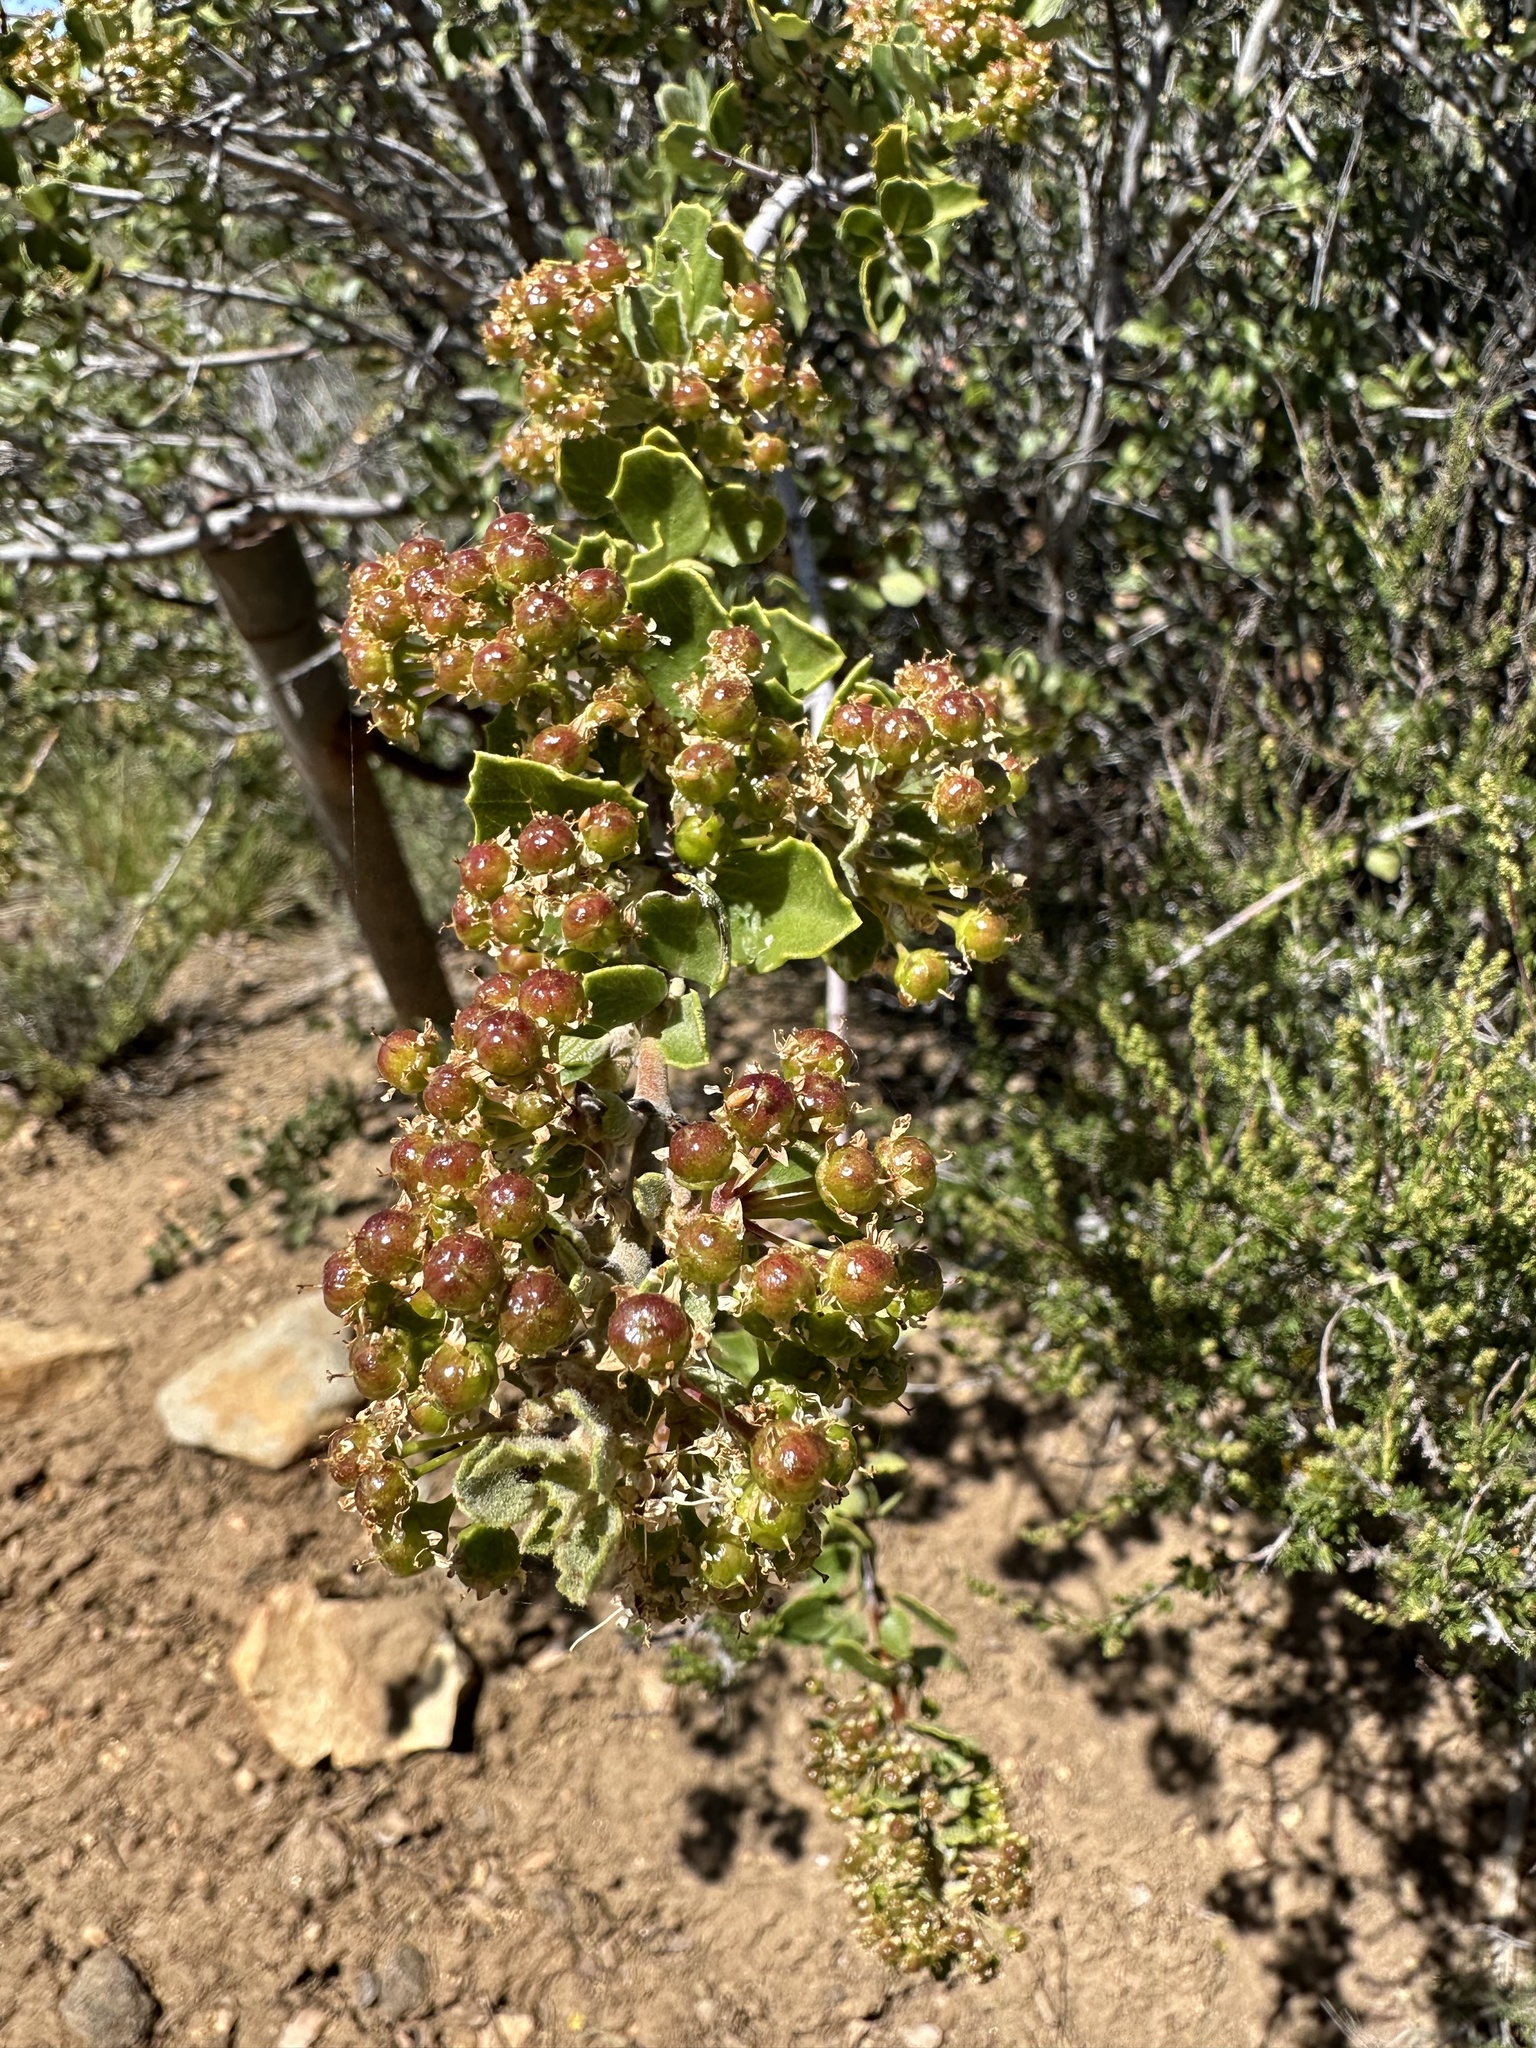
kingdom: Plantae
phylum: Tracheophyta
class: Magnoliopsida
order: Rosales
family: Rhamnaceae
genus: Ceanothus
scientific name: Ceanothus perplexans
